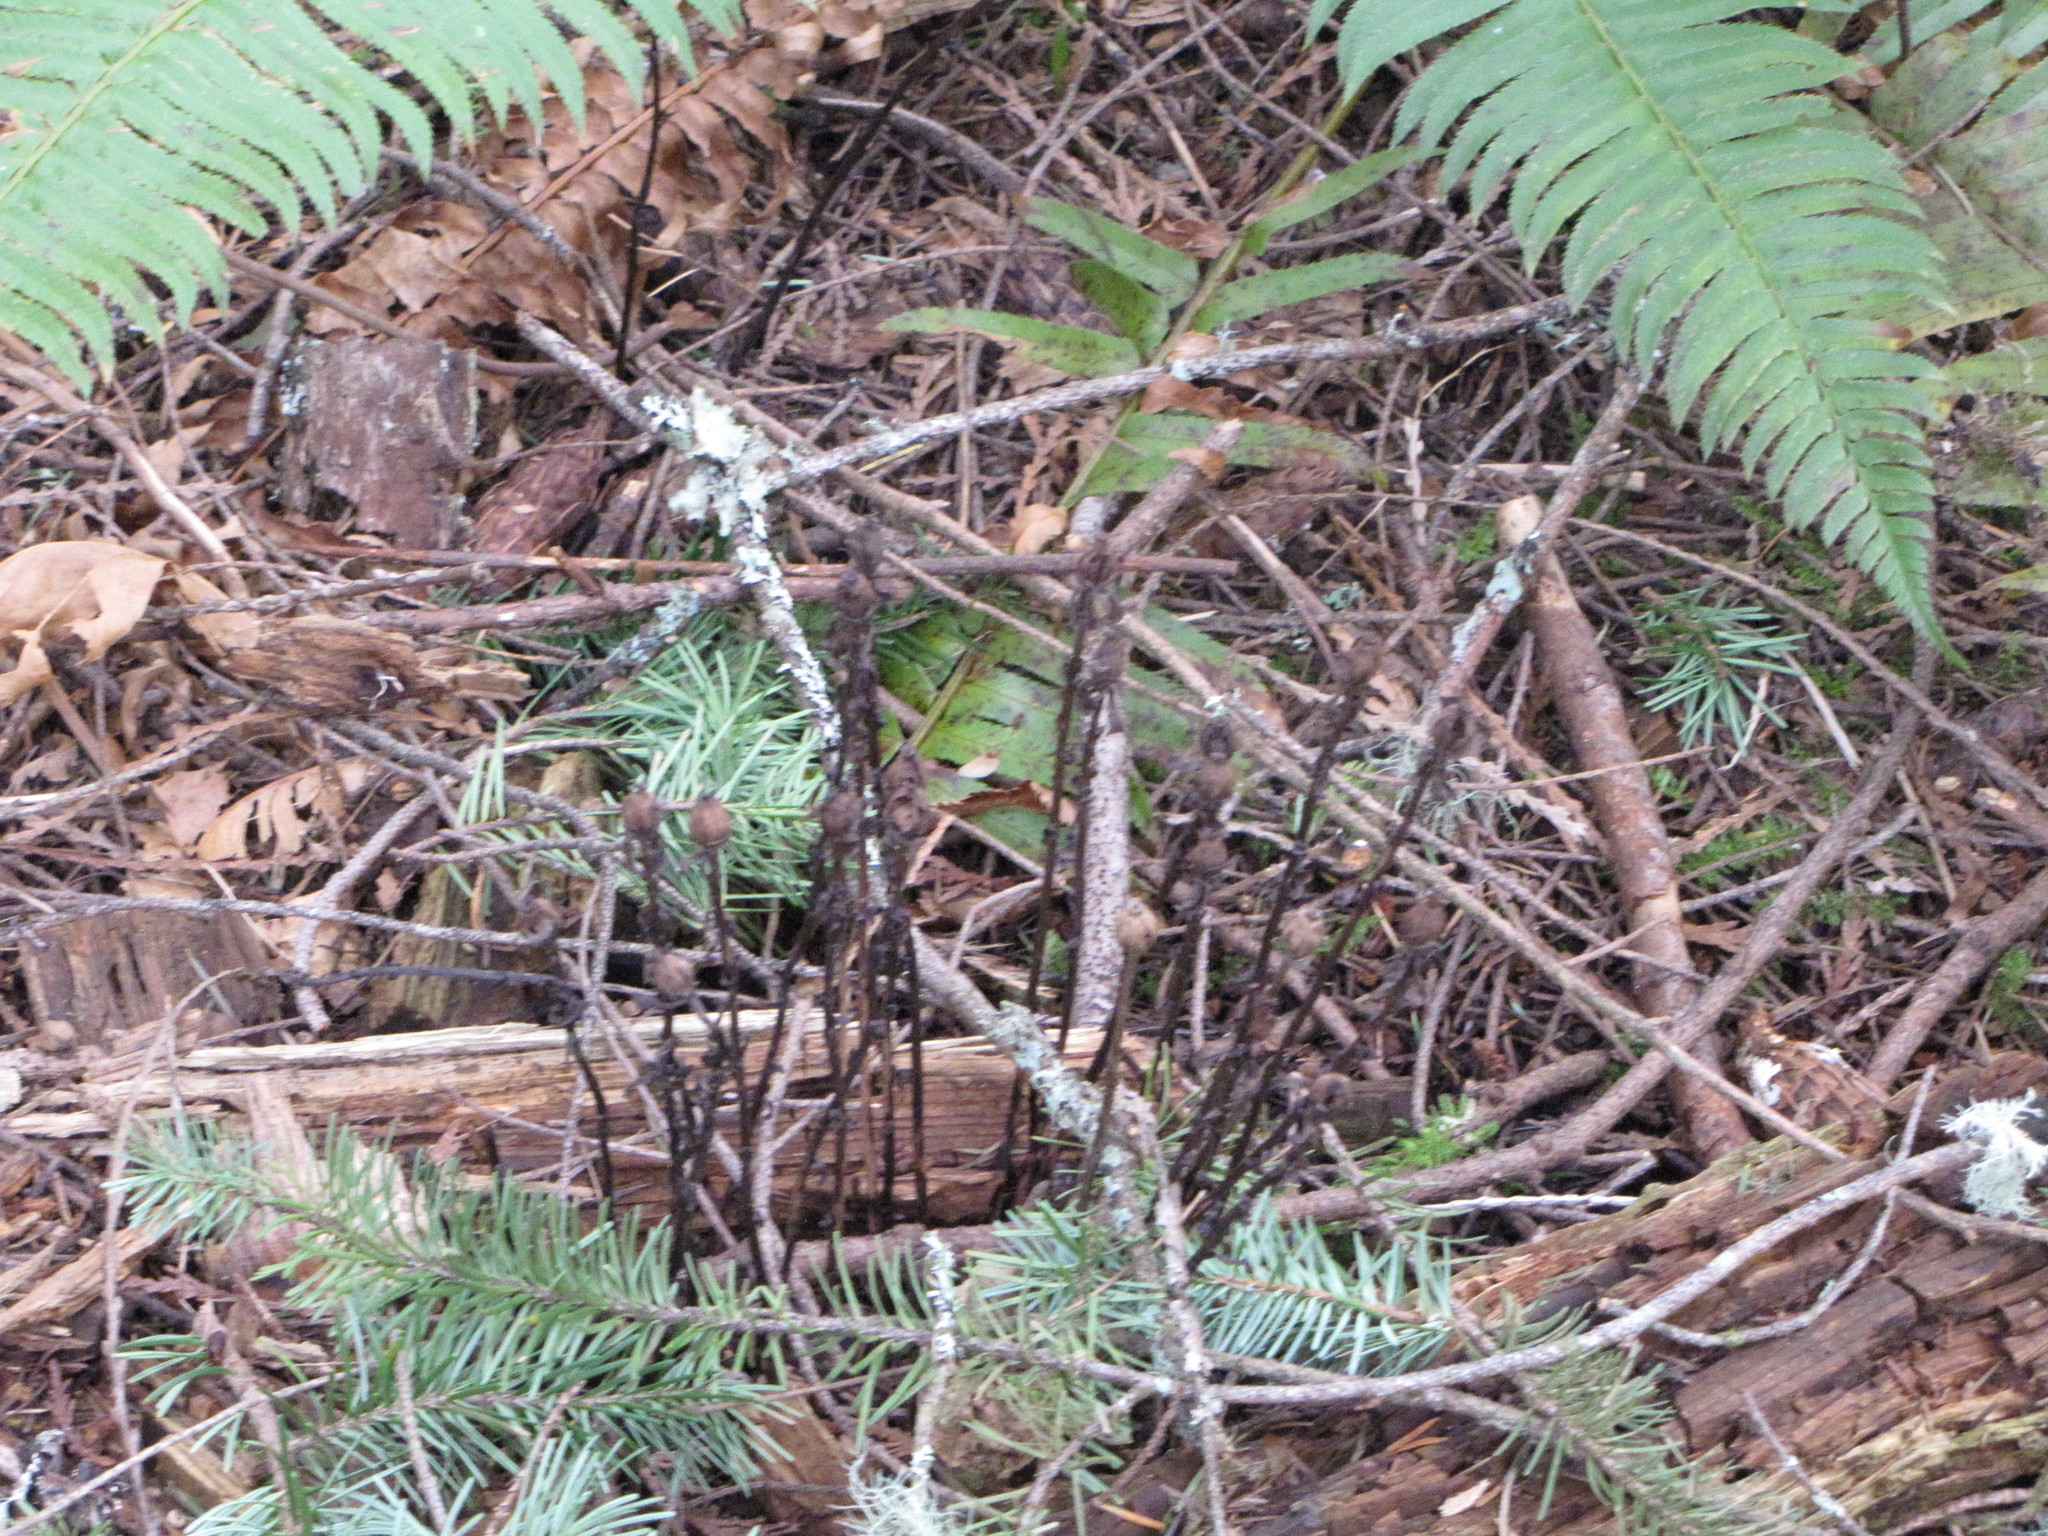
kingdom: Plantae
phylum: Tracheophyta
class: Magnoliopsida
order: Ericales
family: Ericaceae
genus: Monotropa
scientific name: Monotropa uniflora
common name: Convulsion root
